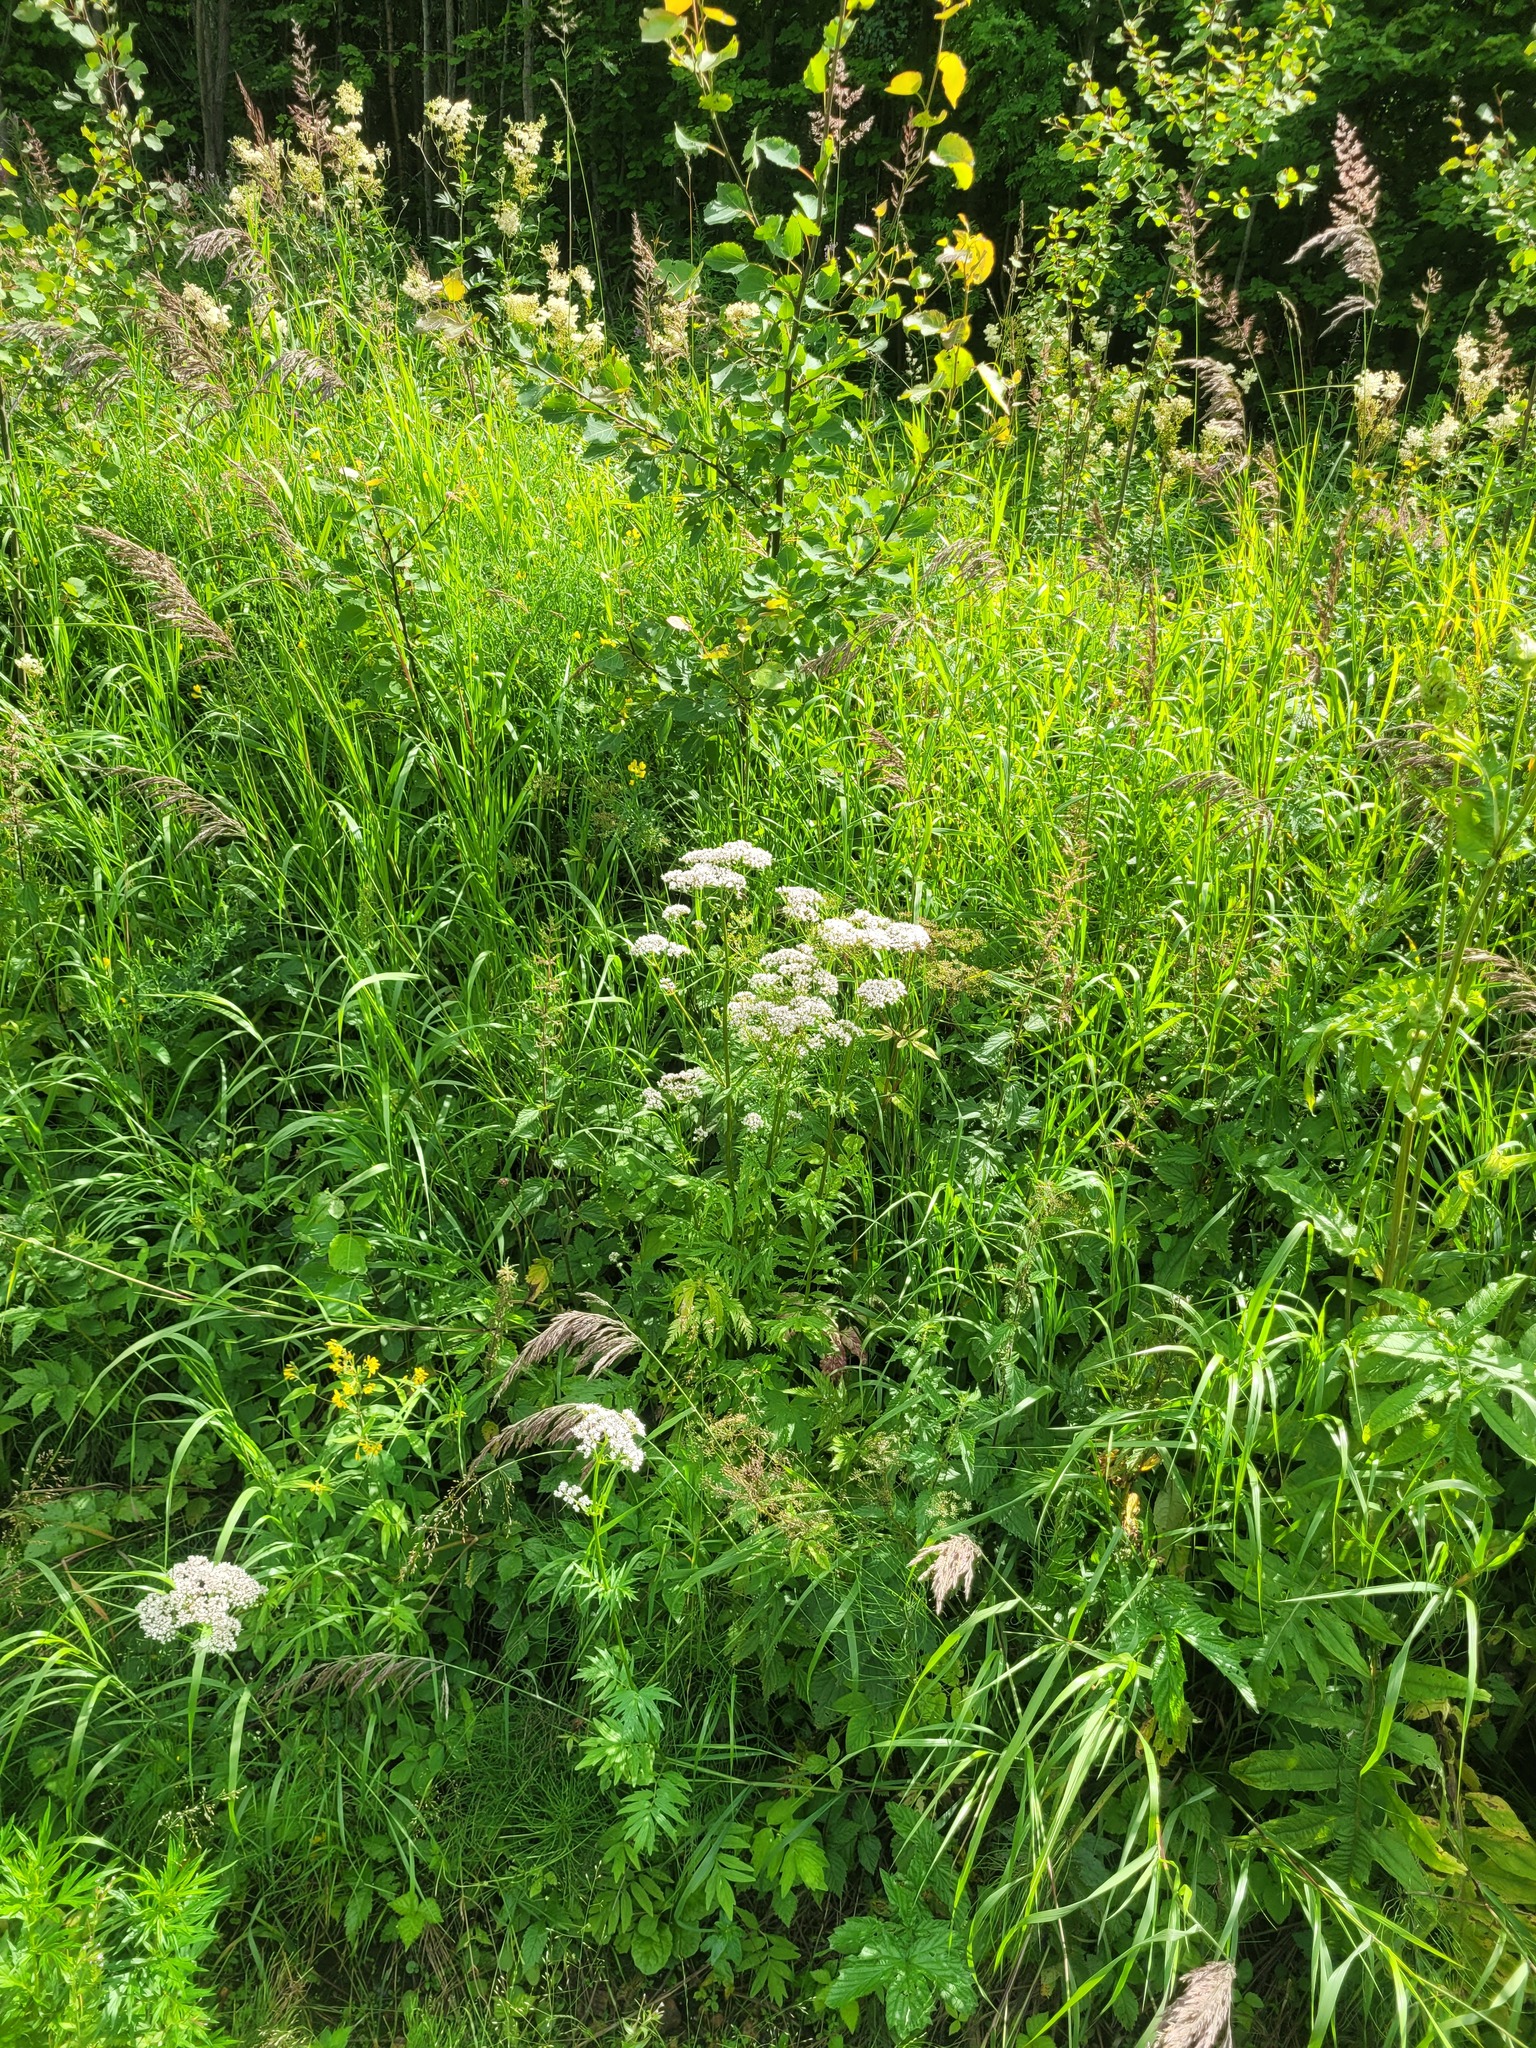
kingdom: Plantae
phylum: Tracheophyta
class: Magnoliopsida
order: Dipsacales
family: Caprifoliaceae
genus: Valeriana
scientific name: Valeriana officinalis
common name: Common valerian
